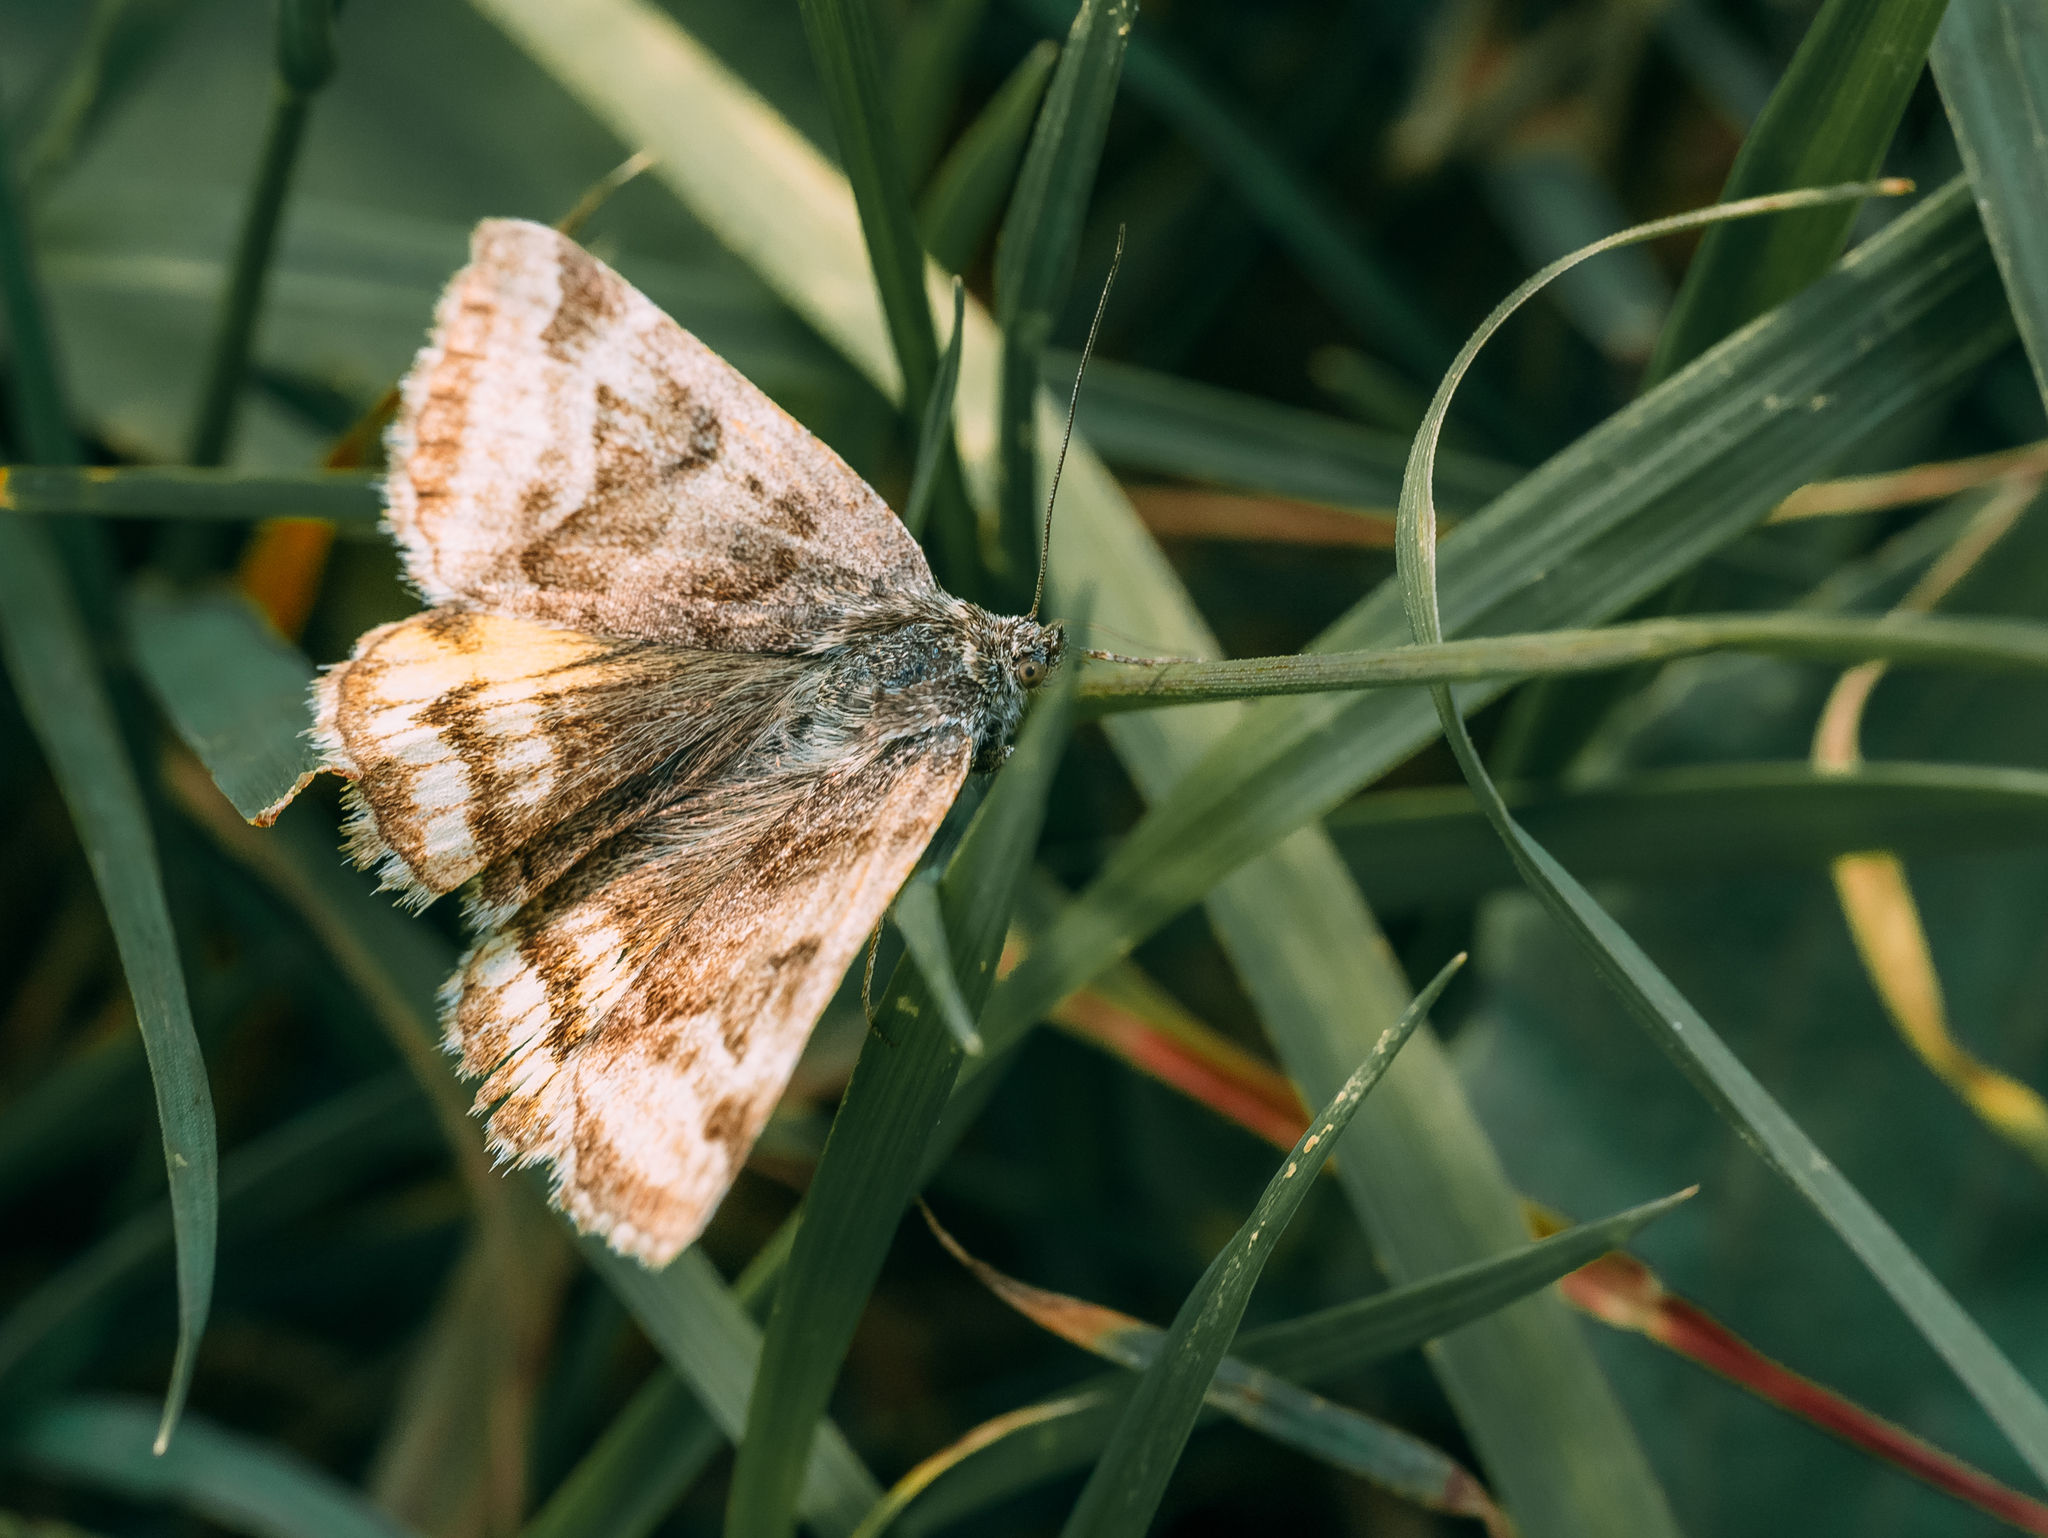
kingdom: Animalia
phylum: Arthropoda
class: Insecta
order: Lepidoptera
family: Erebidae
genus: Euclidia
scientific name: Euclidia glyphica
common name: Burnet companion
